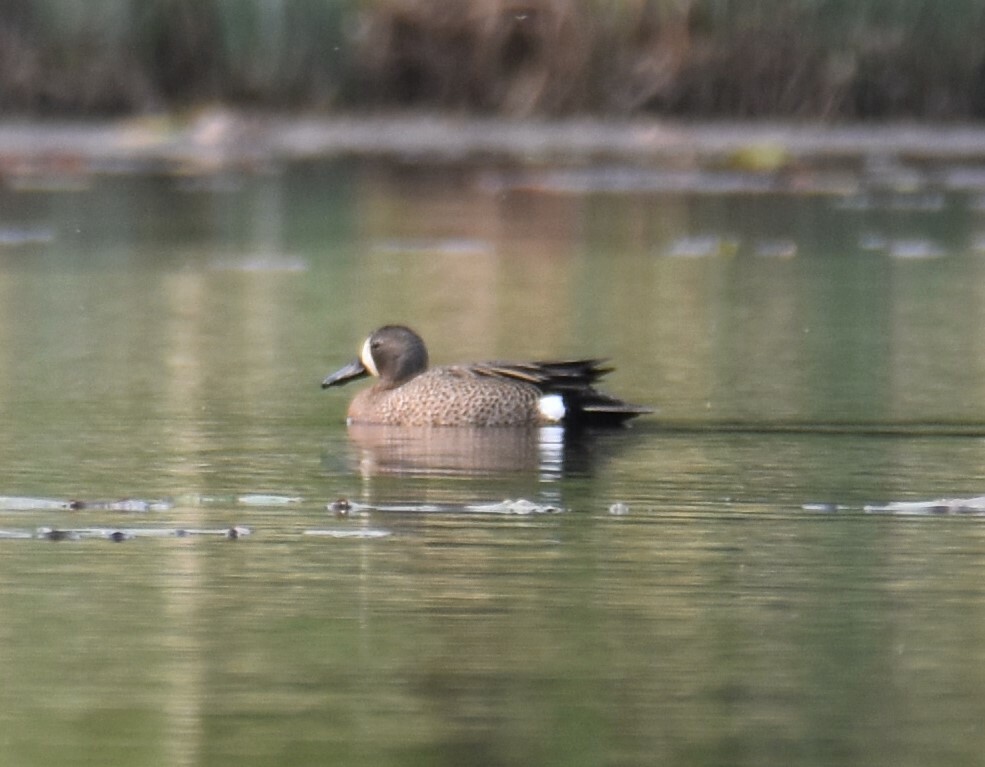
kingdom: Animalia
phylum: Chordata
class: Aves
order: Anseriformes
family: Anatidae
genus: Spatula
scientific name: Spatula discors
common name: Blue-winged teal
